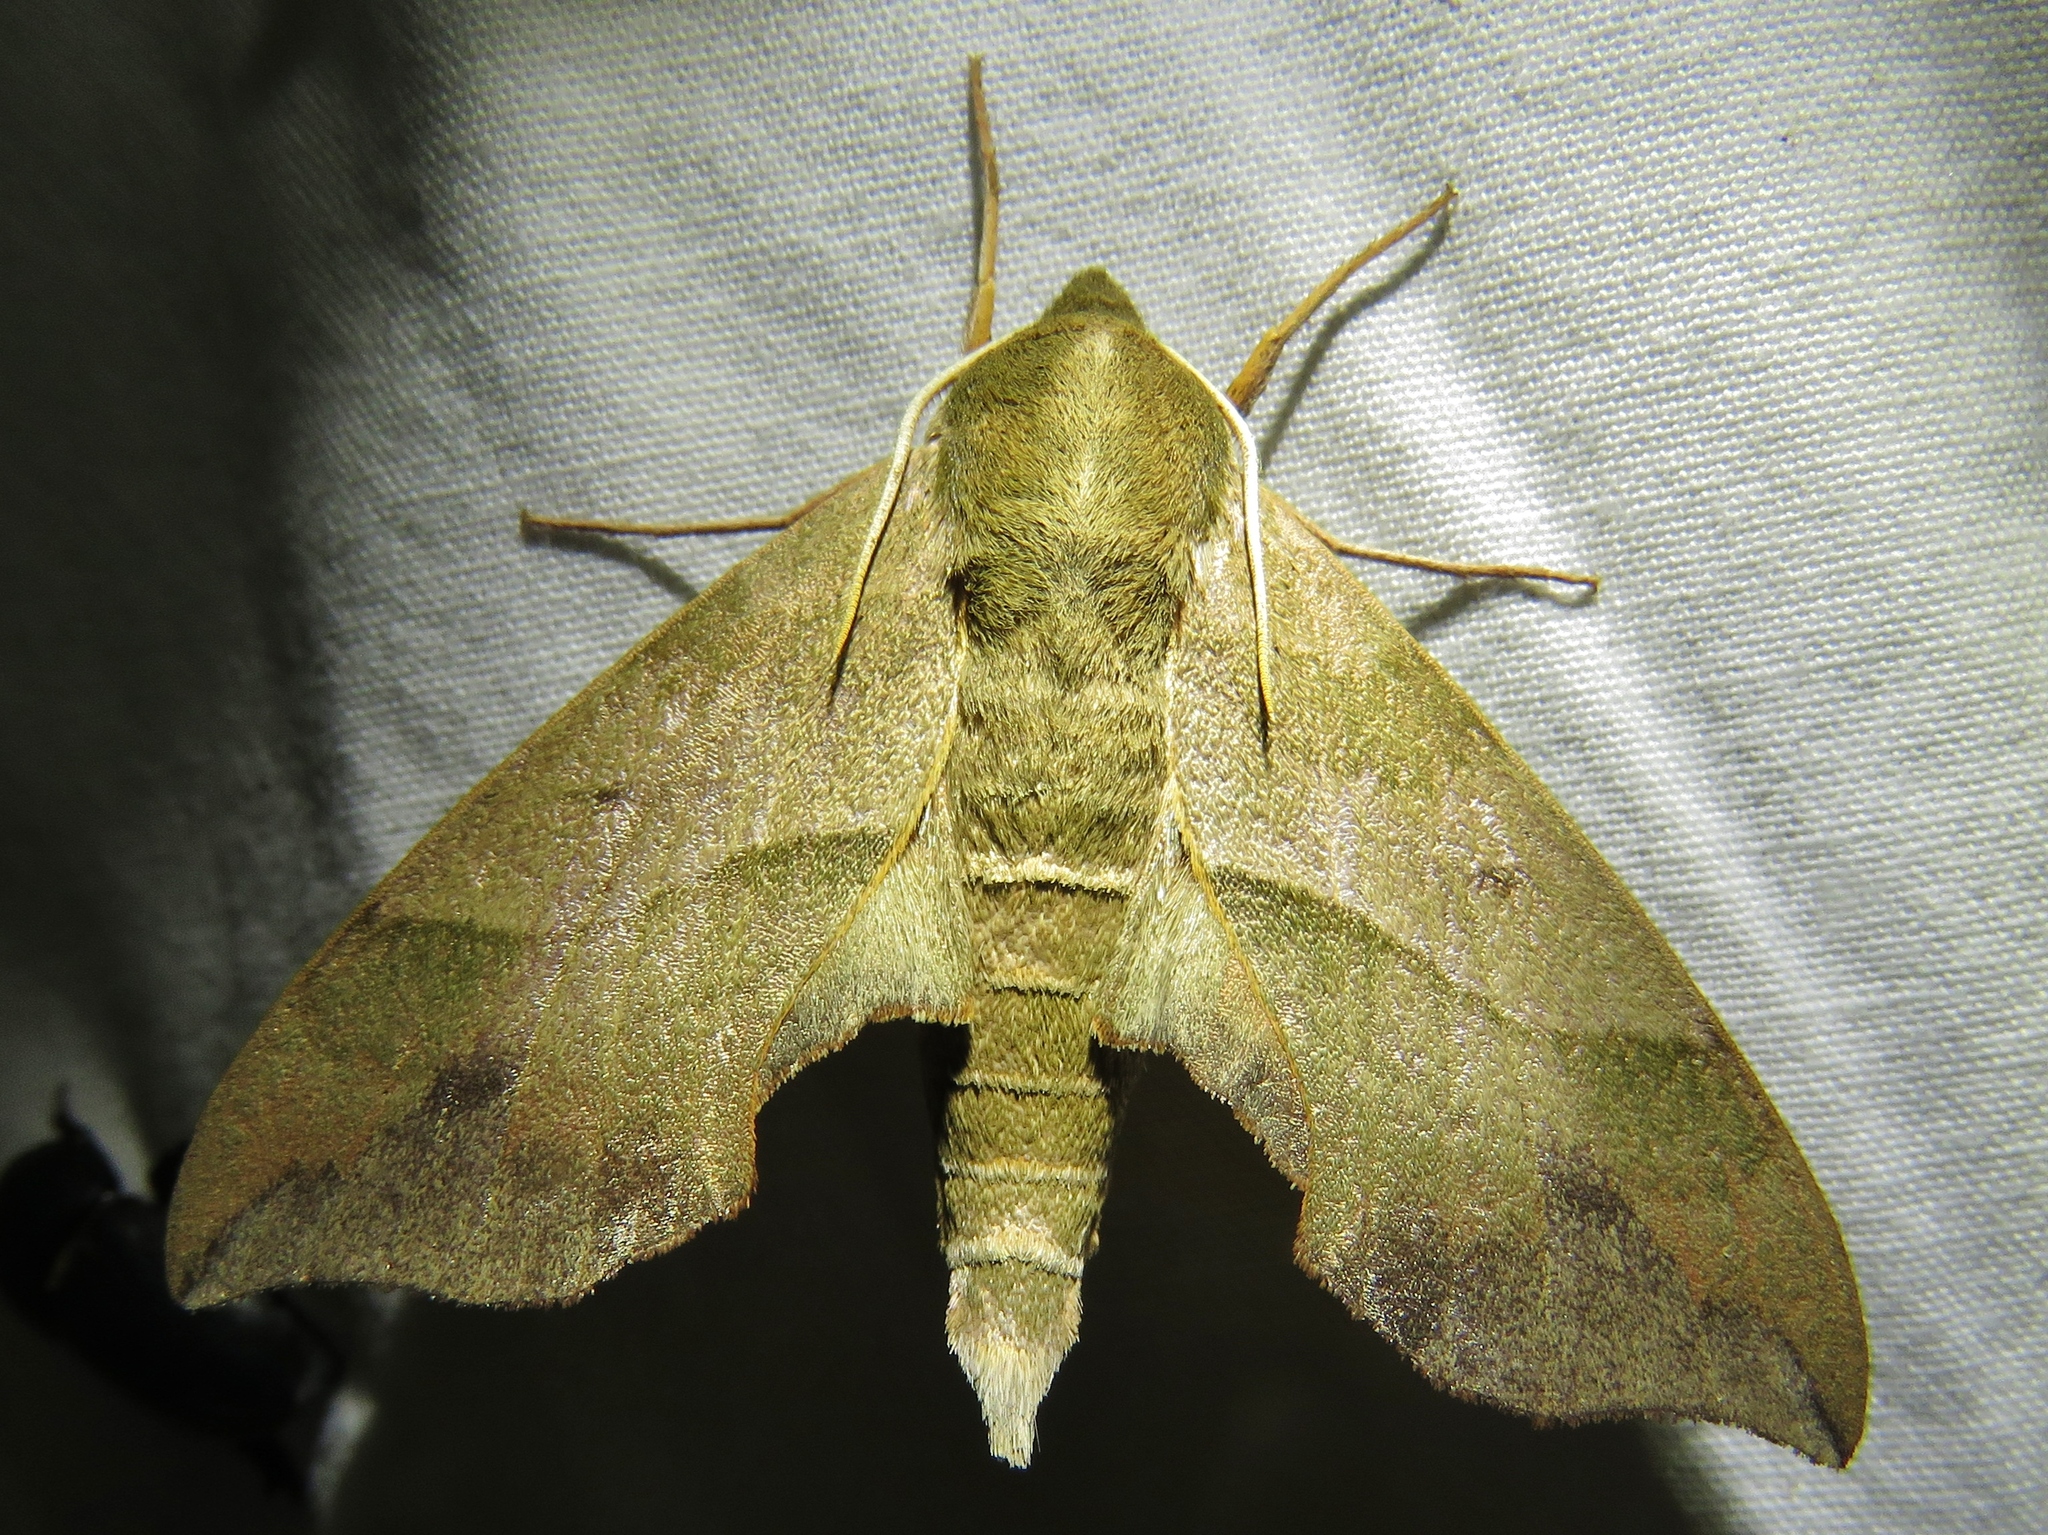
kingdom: Animalia
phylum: Arthropoda
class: Insecta
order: Lepidoptera
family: Sphingidae
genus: Darapsa
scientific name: Darapsa myron
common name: Hog sphinx
